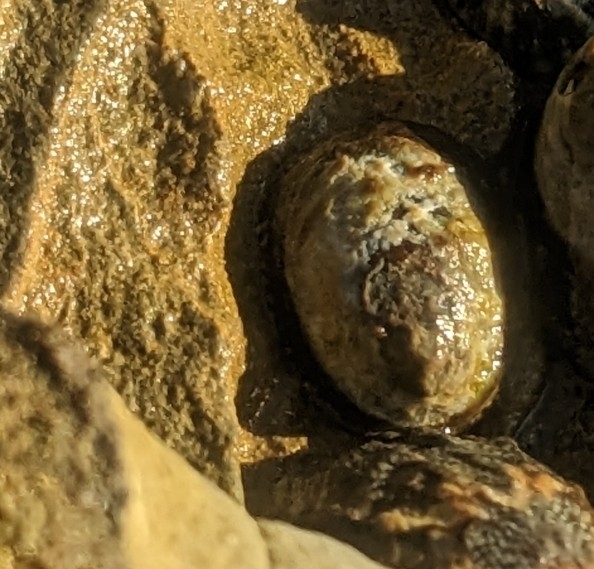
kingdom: Animalia
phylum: Mollusca
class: Gastropoda
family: Lottiidae
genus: Lottia
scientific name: Lottia gigantea
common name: Owl limpet
